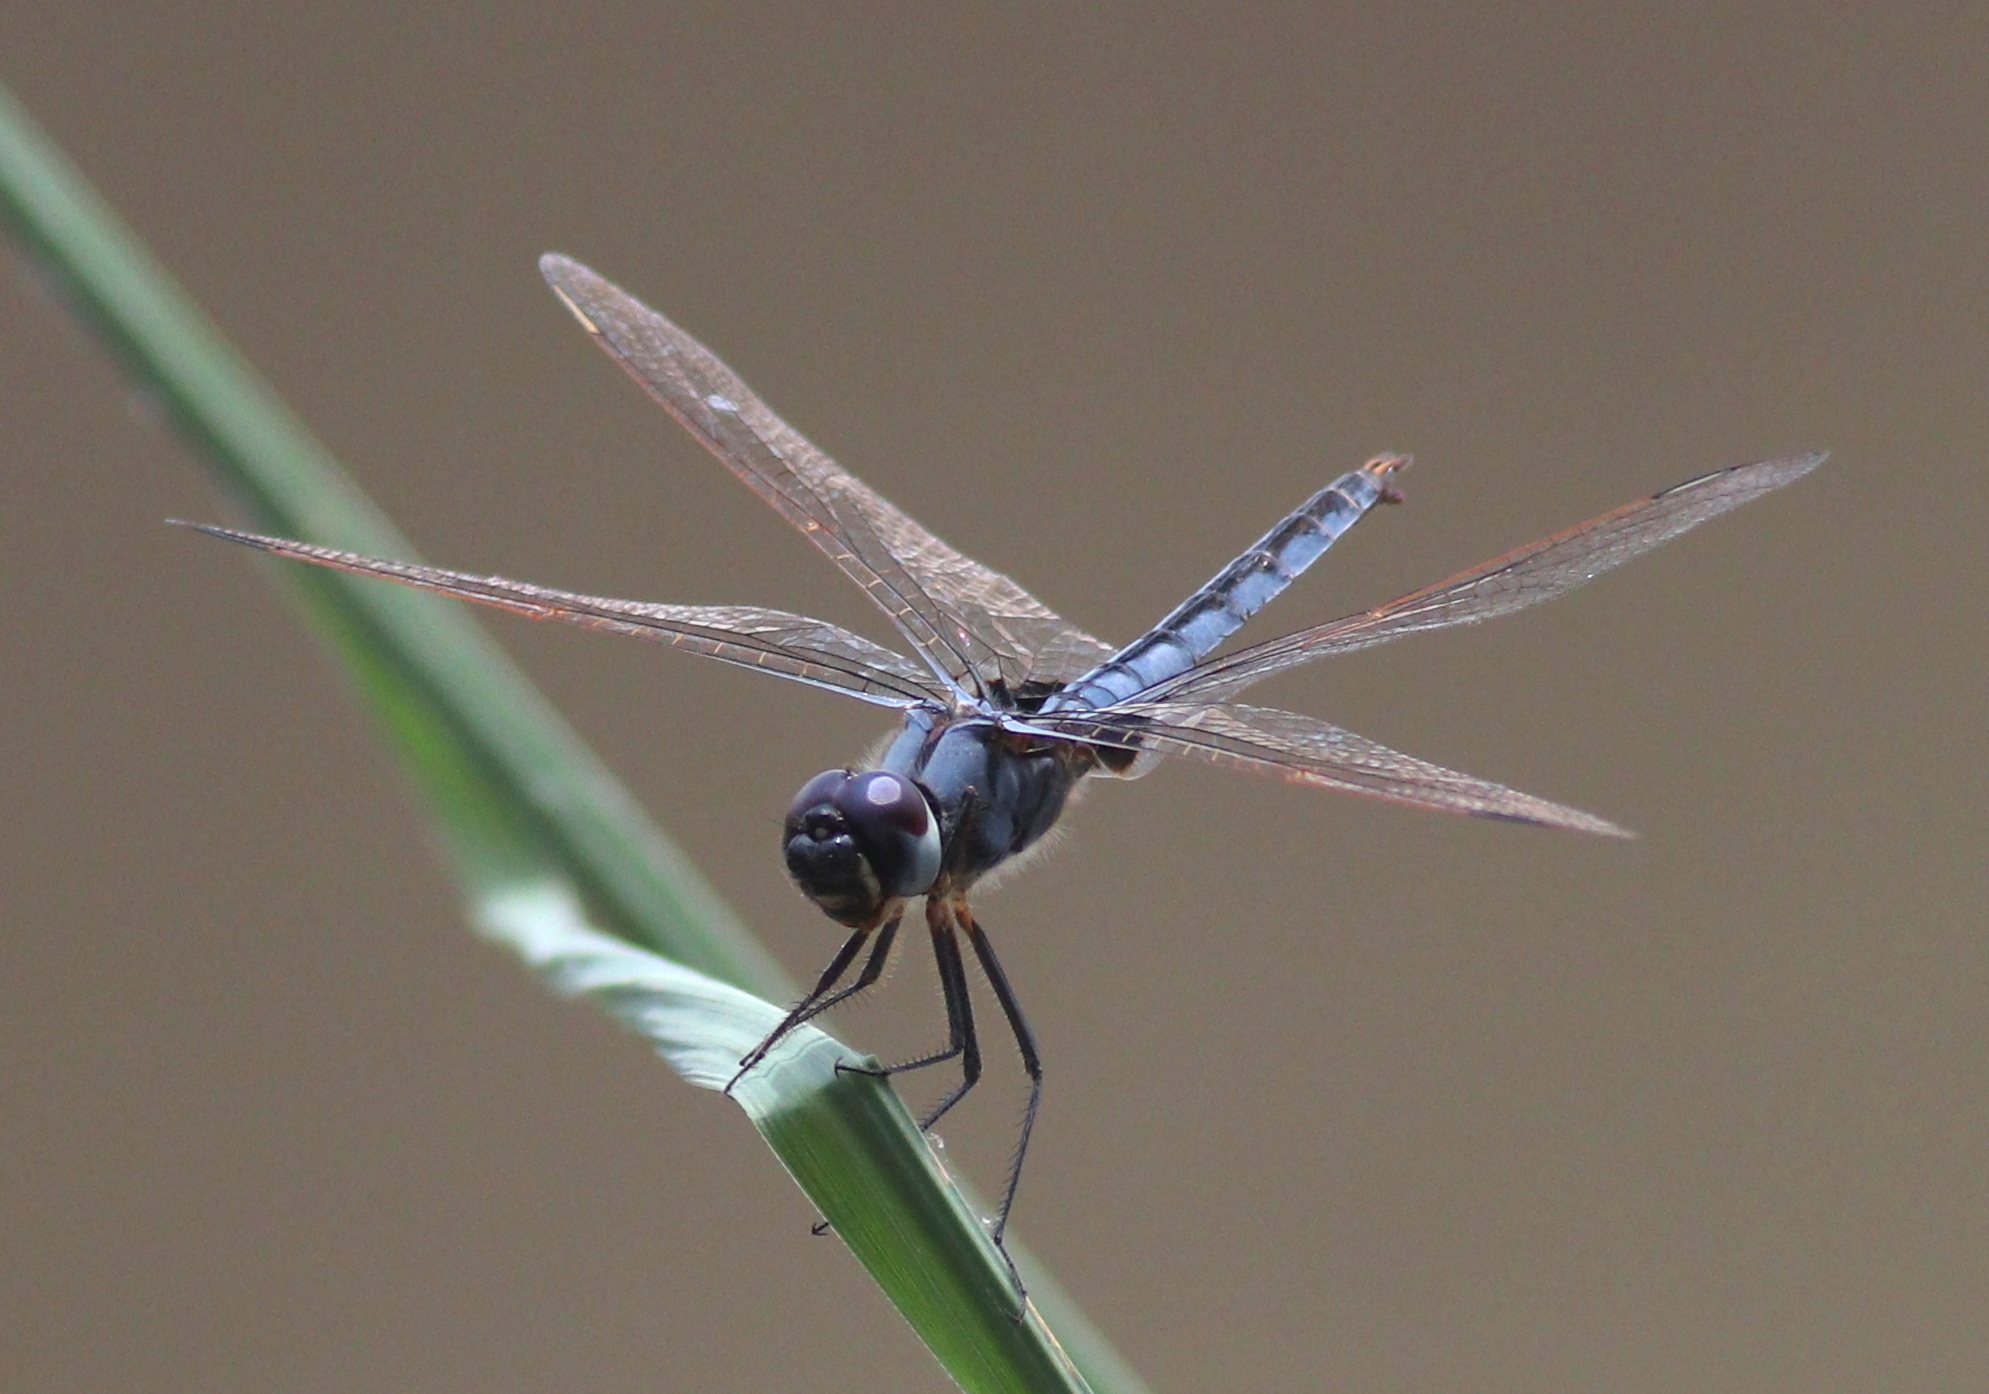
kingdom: Animalia
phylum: Arthropoda
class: Insecta
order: Odonata
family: Libellulidae
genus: Urothemis
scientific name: Urothemis edwardsii
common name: Blue basker
